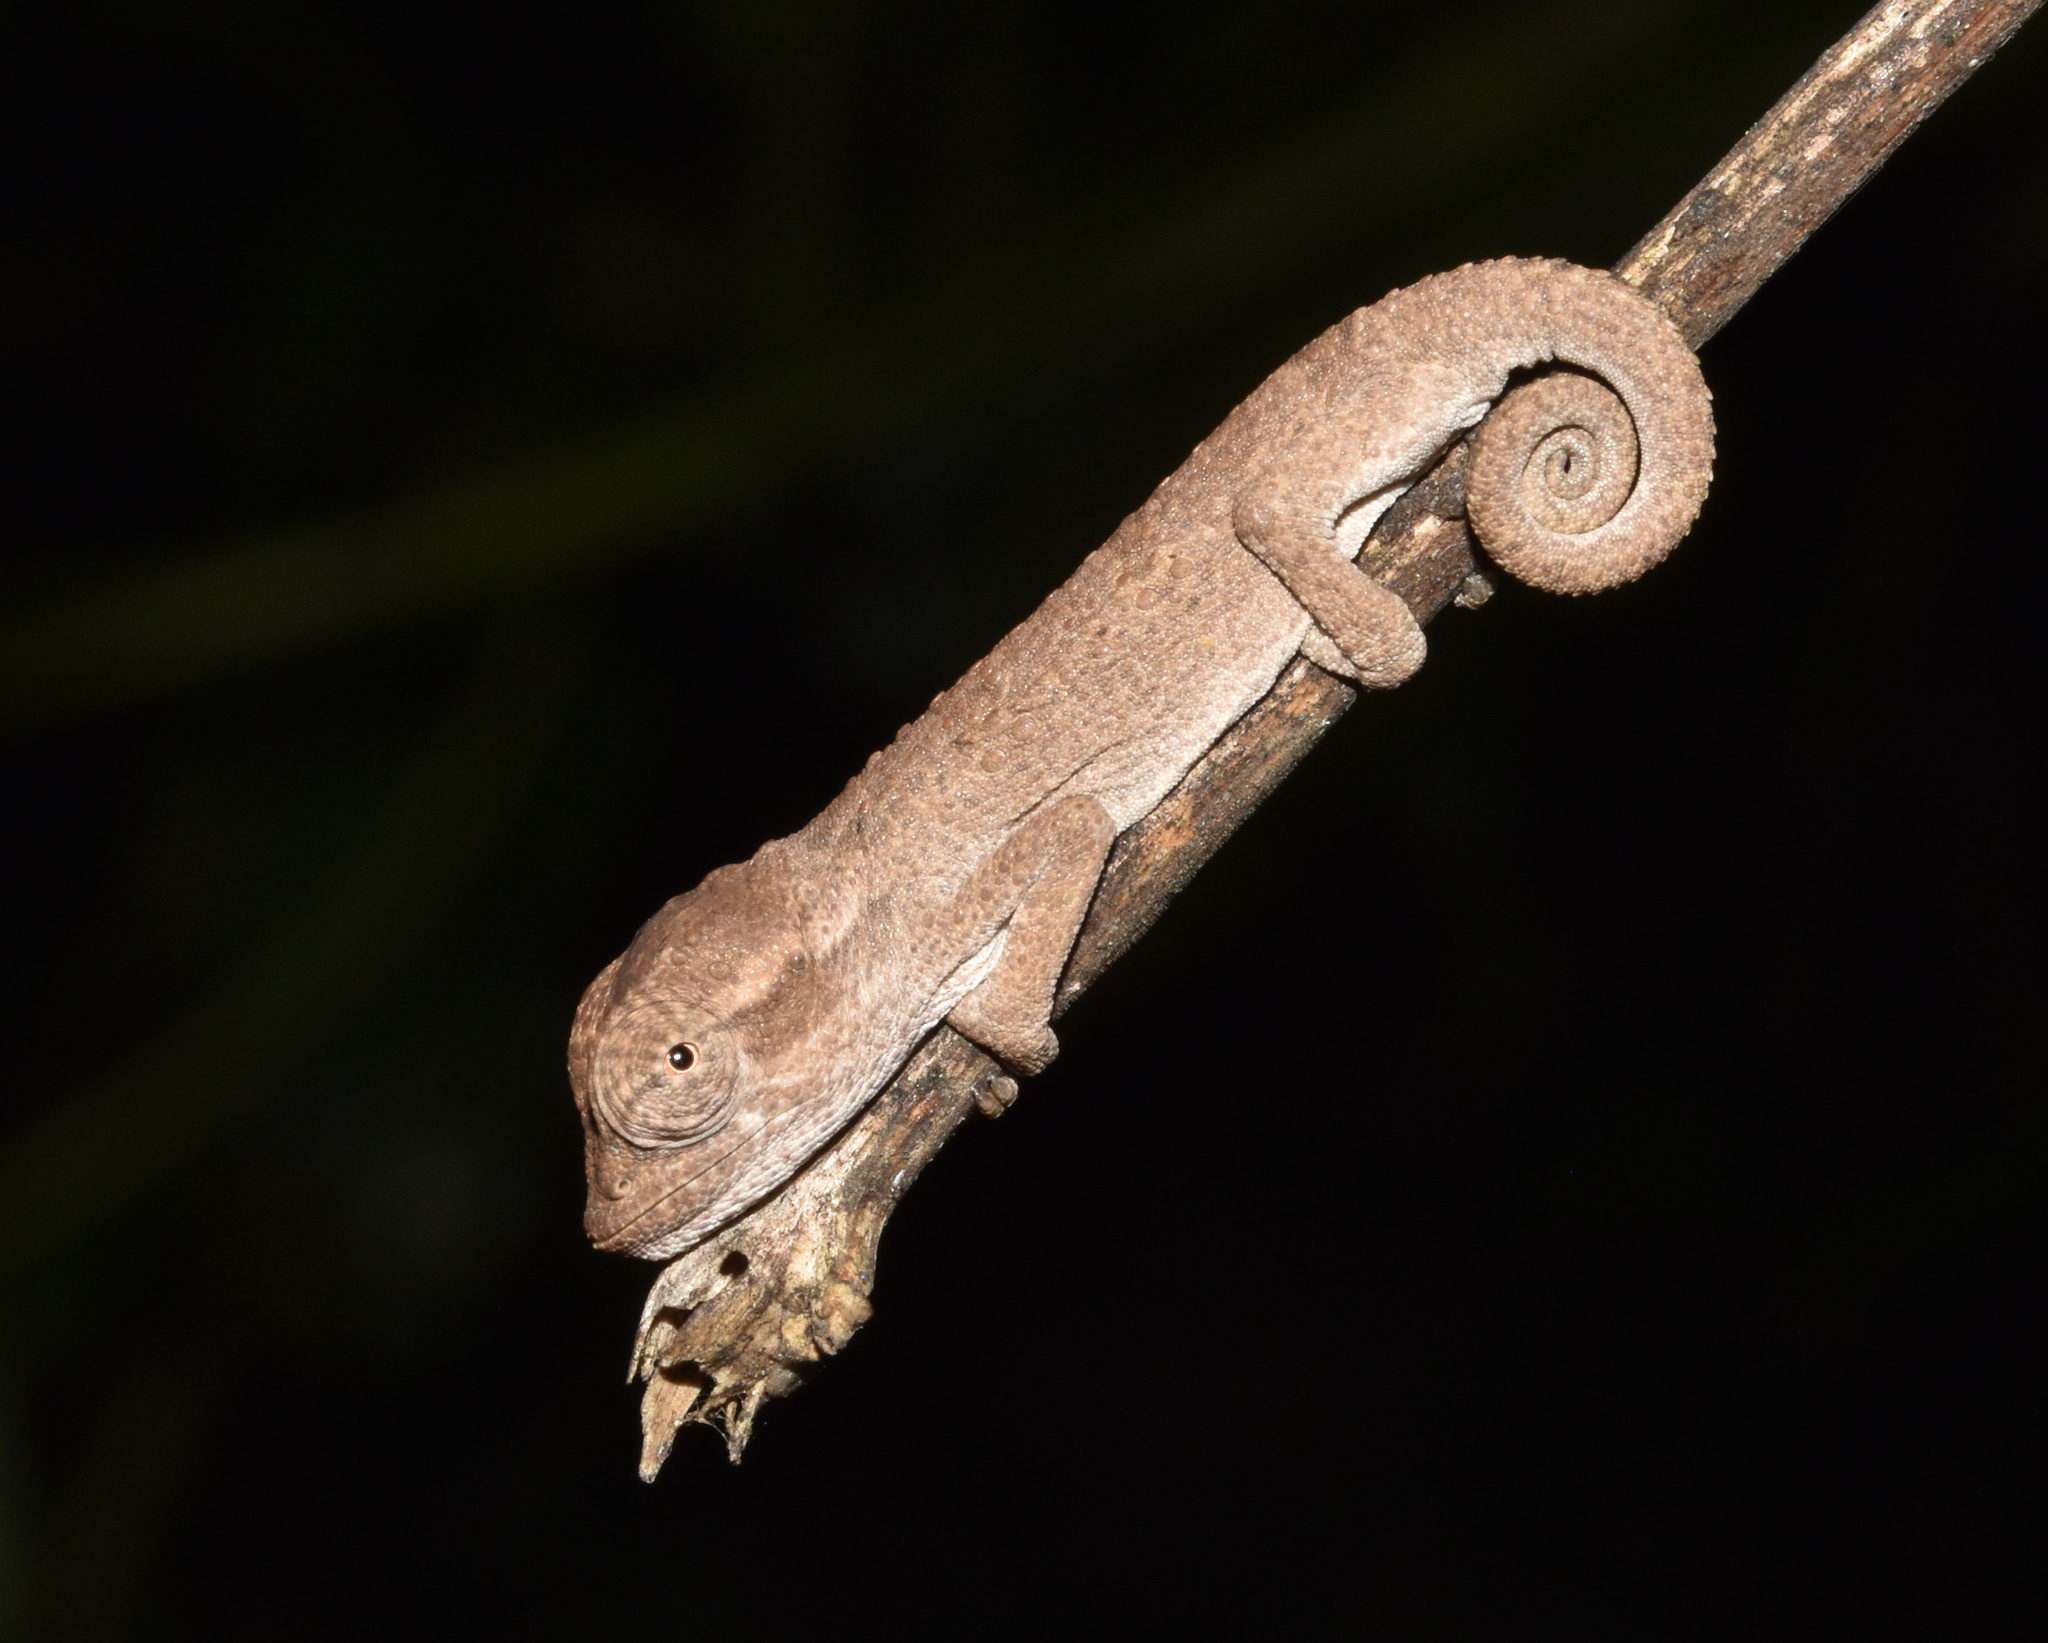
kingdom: Animalia
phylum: Chordata
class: Squamata
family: Chamaeleonidae
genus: Bradypodion
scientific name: Bradypodion melanocephalum
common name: Black-headed dwarf chameleon
